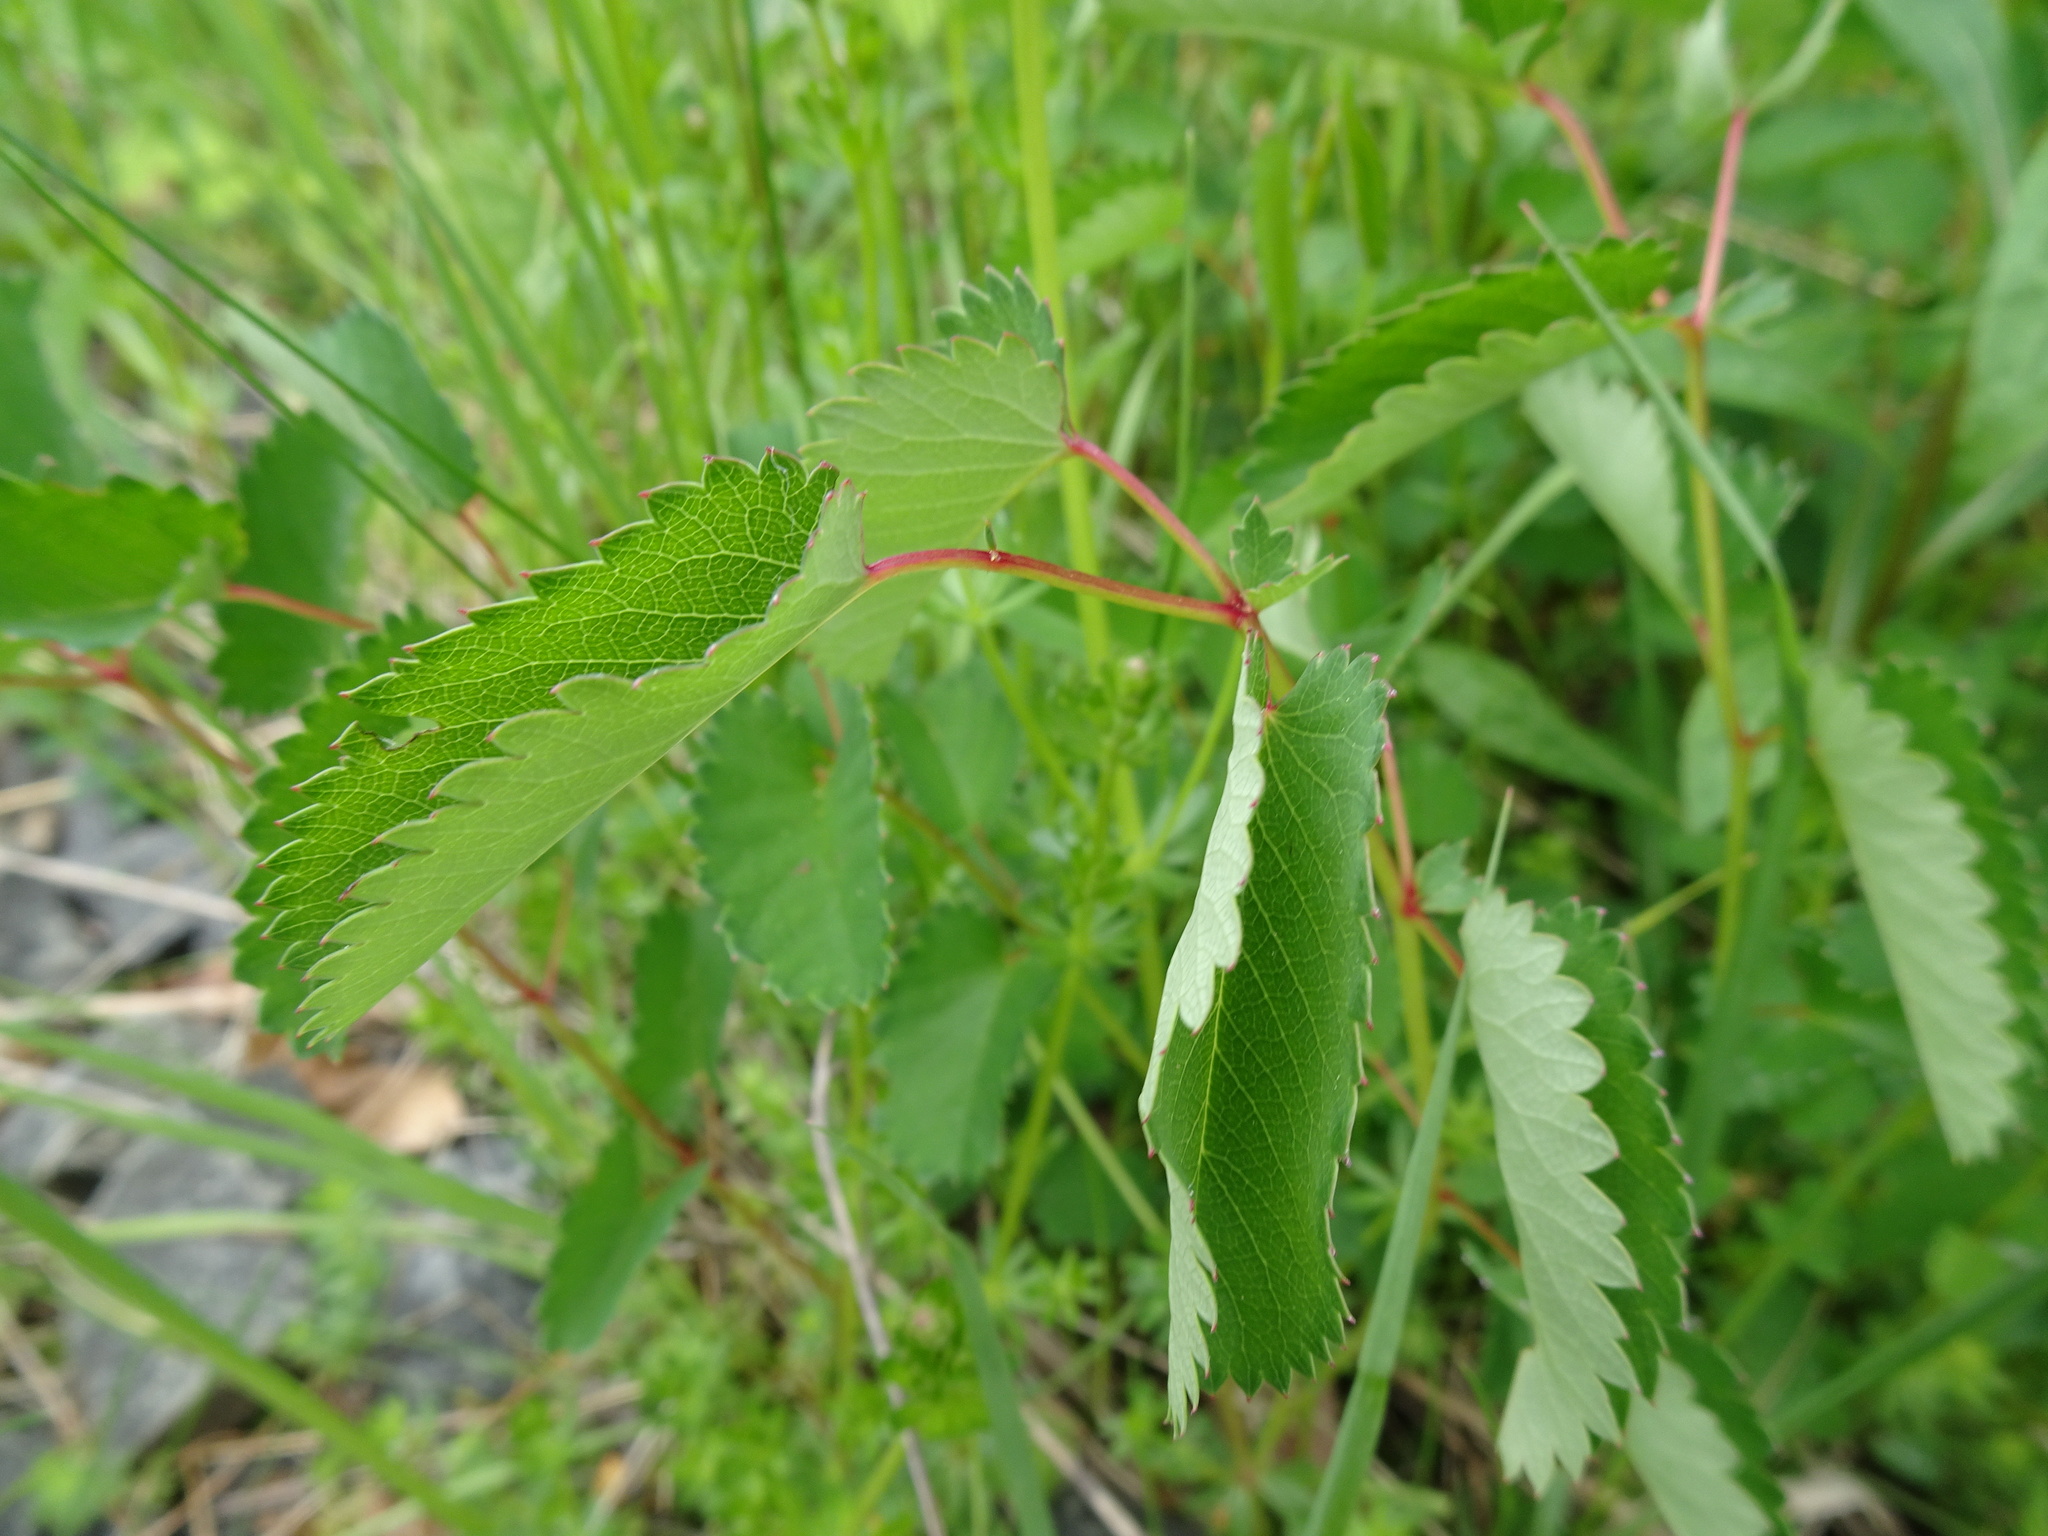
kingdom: Plantae
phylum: Tracheophyta
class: Magnoliopsida
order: Rosales
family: Rosaceae
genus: Sanguisorba
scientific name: Sanguisorba officinalis
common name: Great burnet
